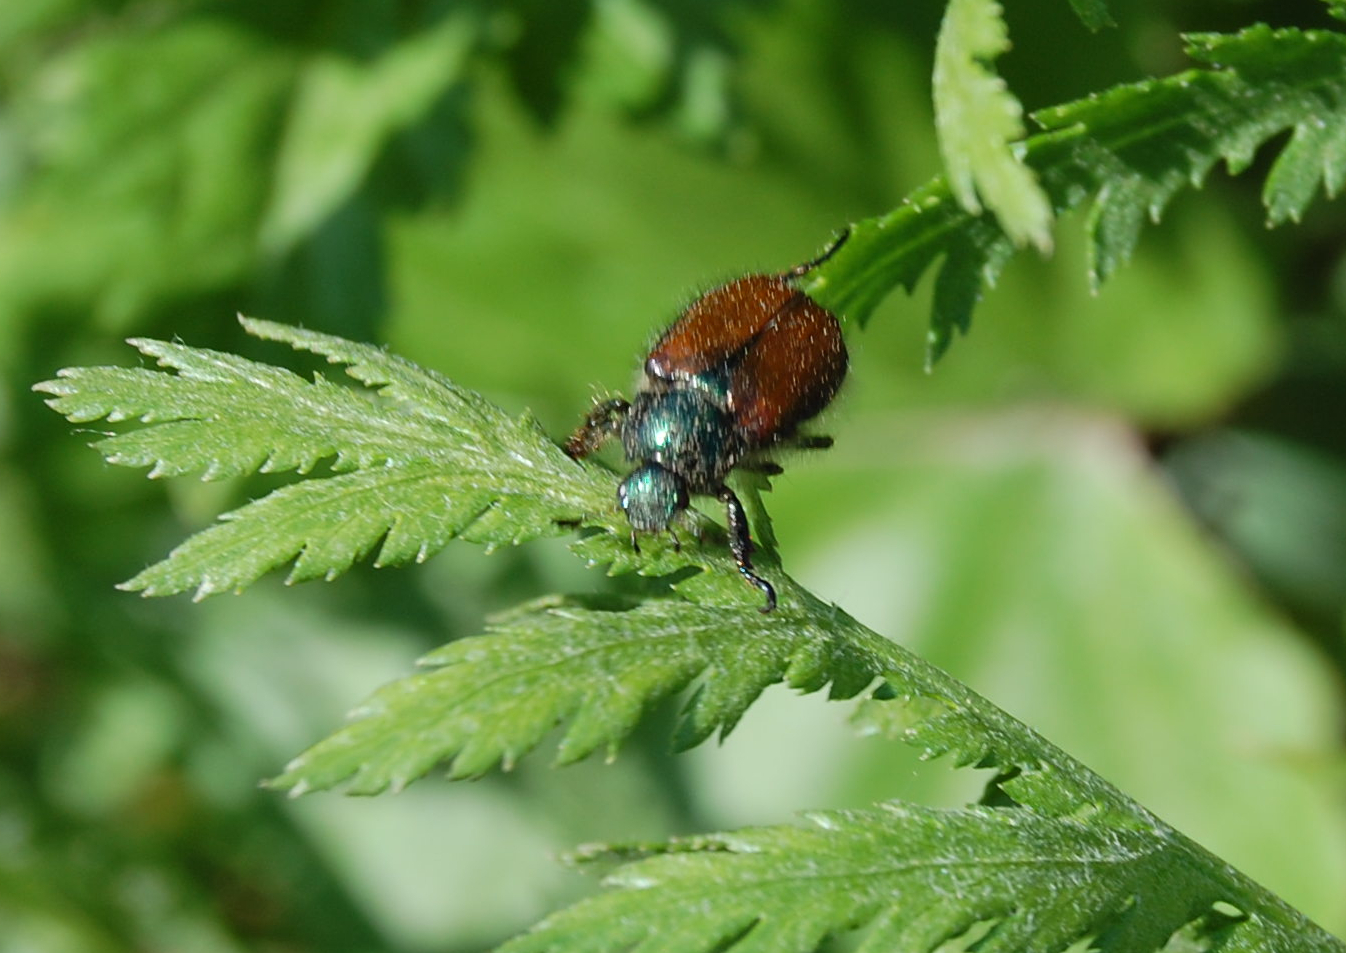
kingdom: Animalia
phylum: Arthropoda
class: Insecta
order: Coleoptera
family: Scarabaeidae
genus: Phyllopertha
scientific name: Phyllopertha horticola
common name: Garden chafer
